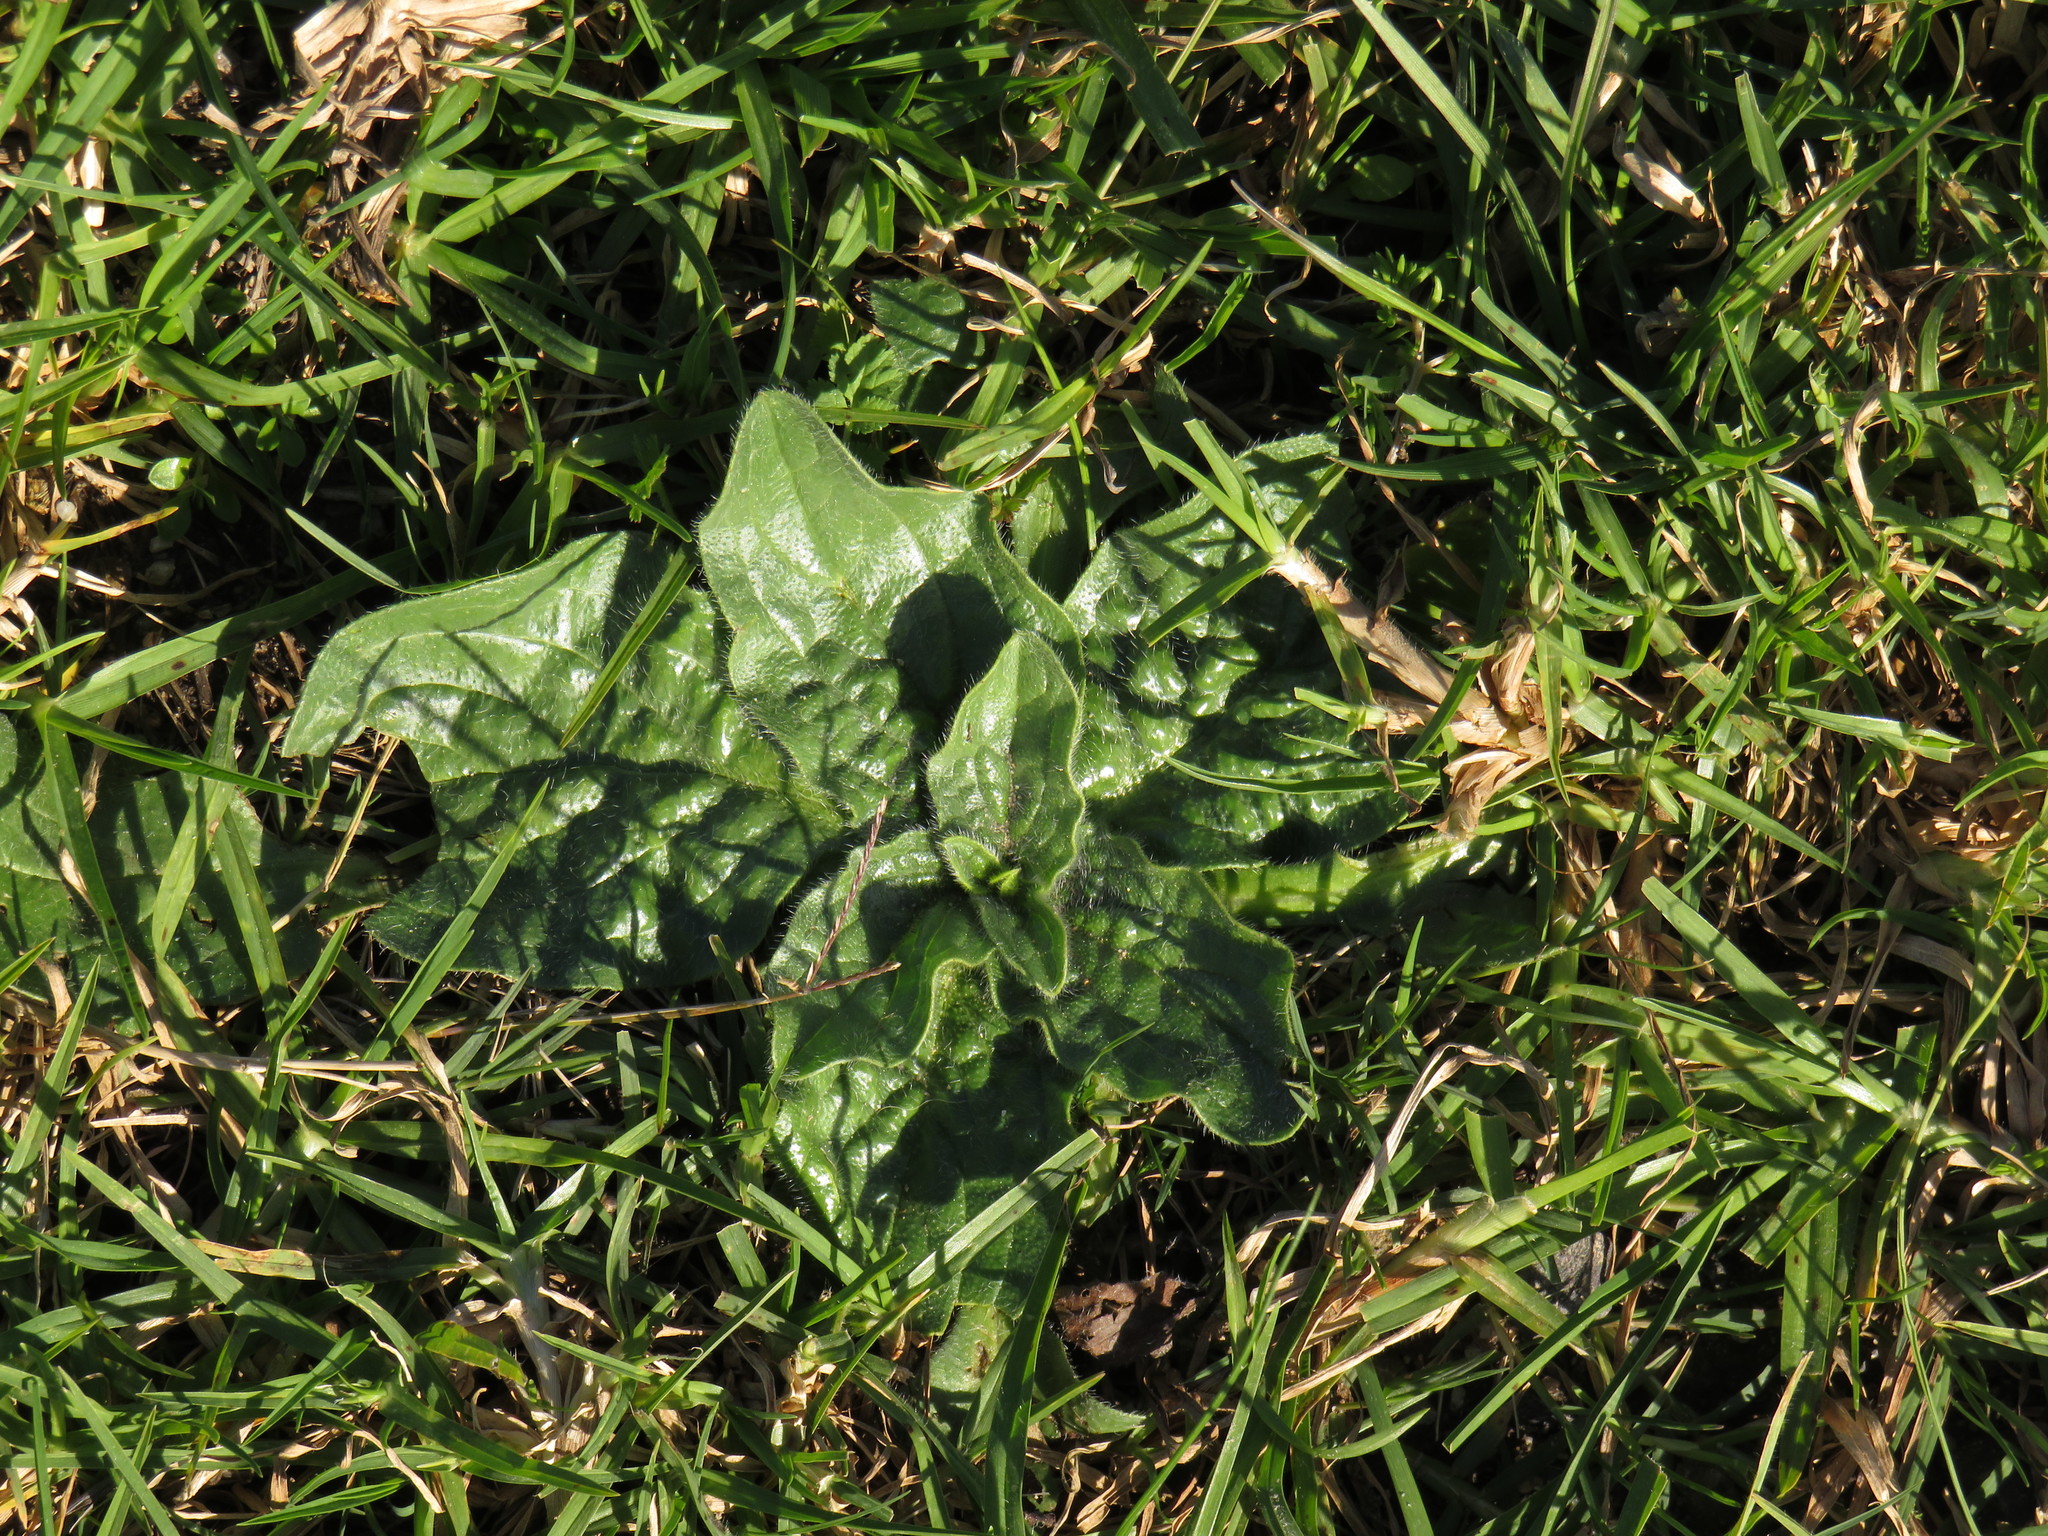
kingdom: Plantae
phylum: Tracheophyta
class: Magnoliopsida
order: Boraginales
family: Boraginaceae
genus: Echium
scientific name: Echium plantagineum
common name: Purple viper's-bugloss
